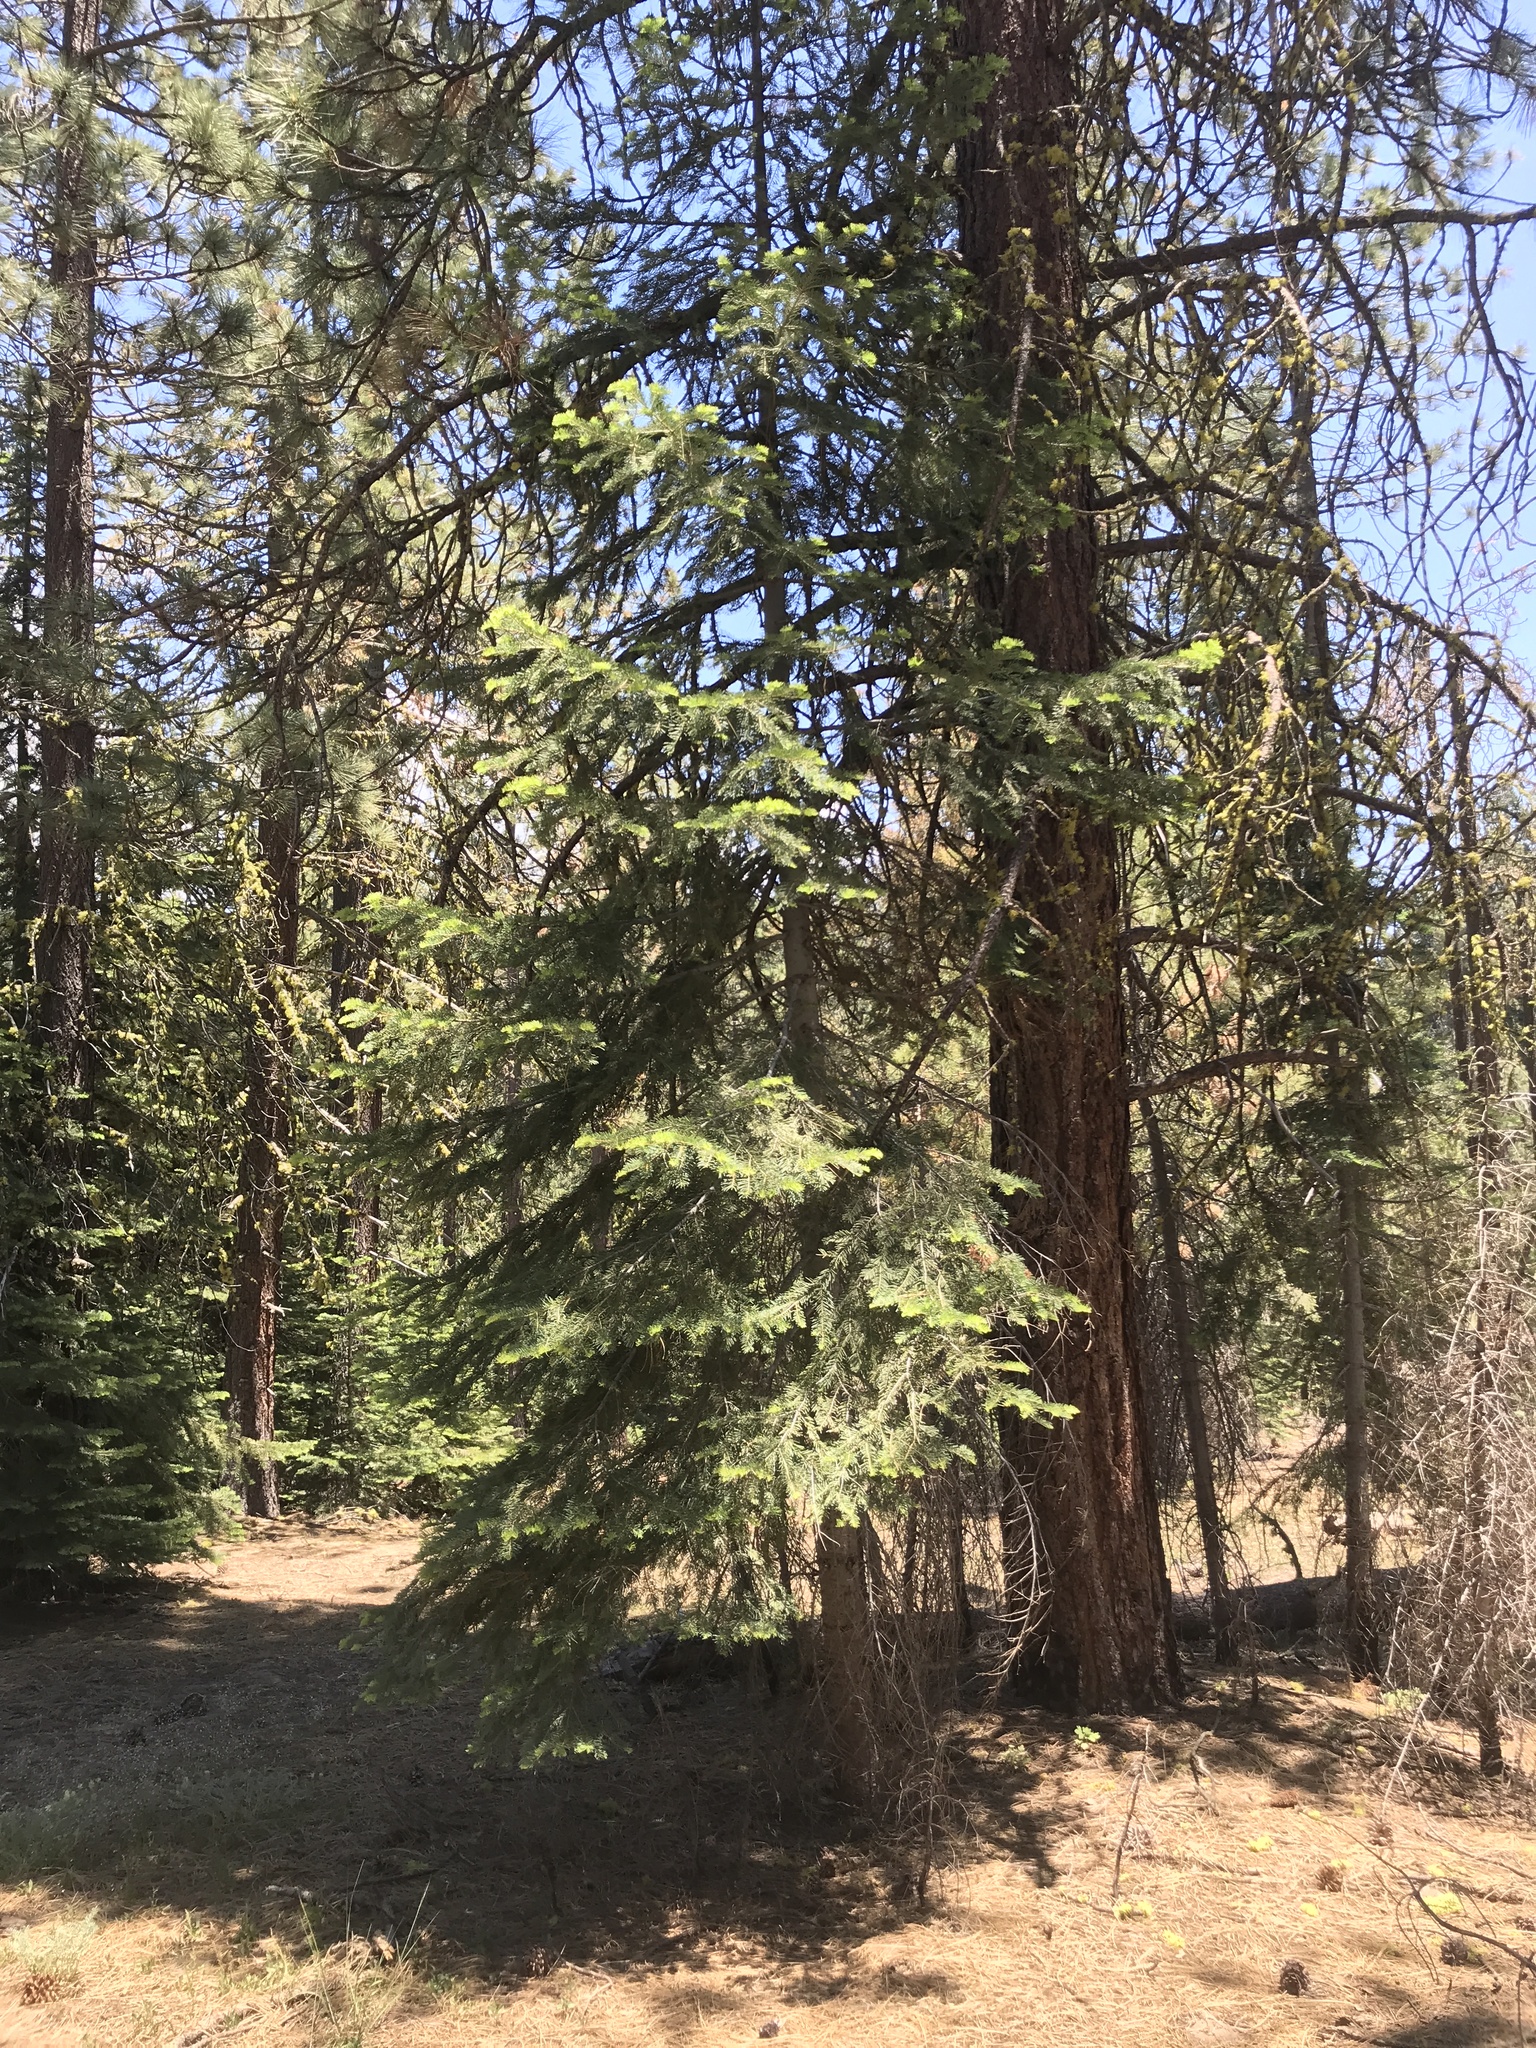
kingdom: Plantae
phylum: Tracheophyta
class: Pinopsida
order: Pinales
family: Pinaceae
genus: Abies
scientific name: Abies concolor
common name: Colorado fir
